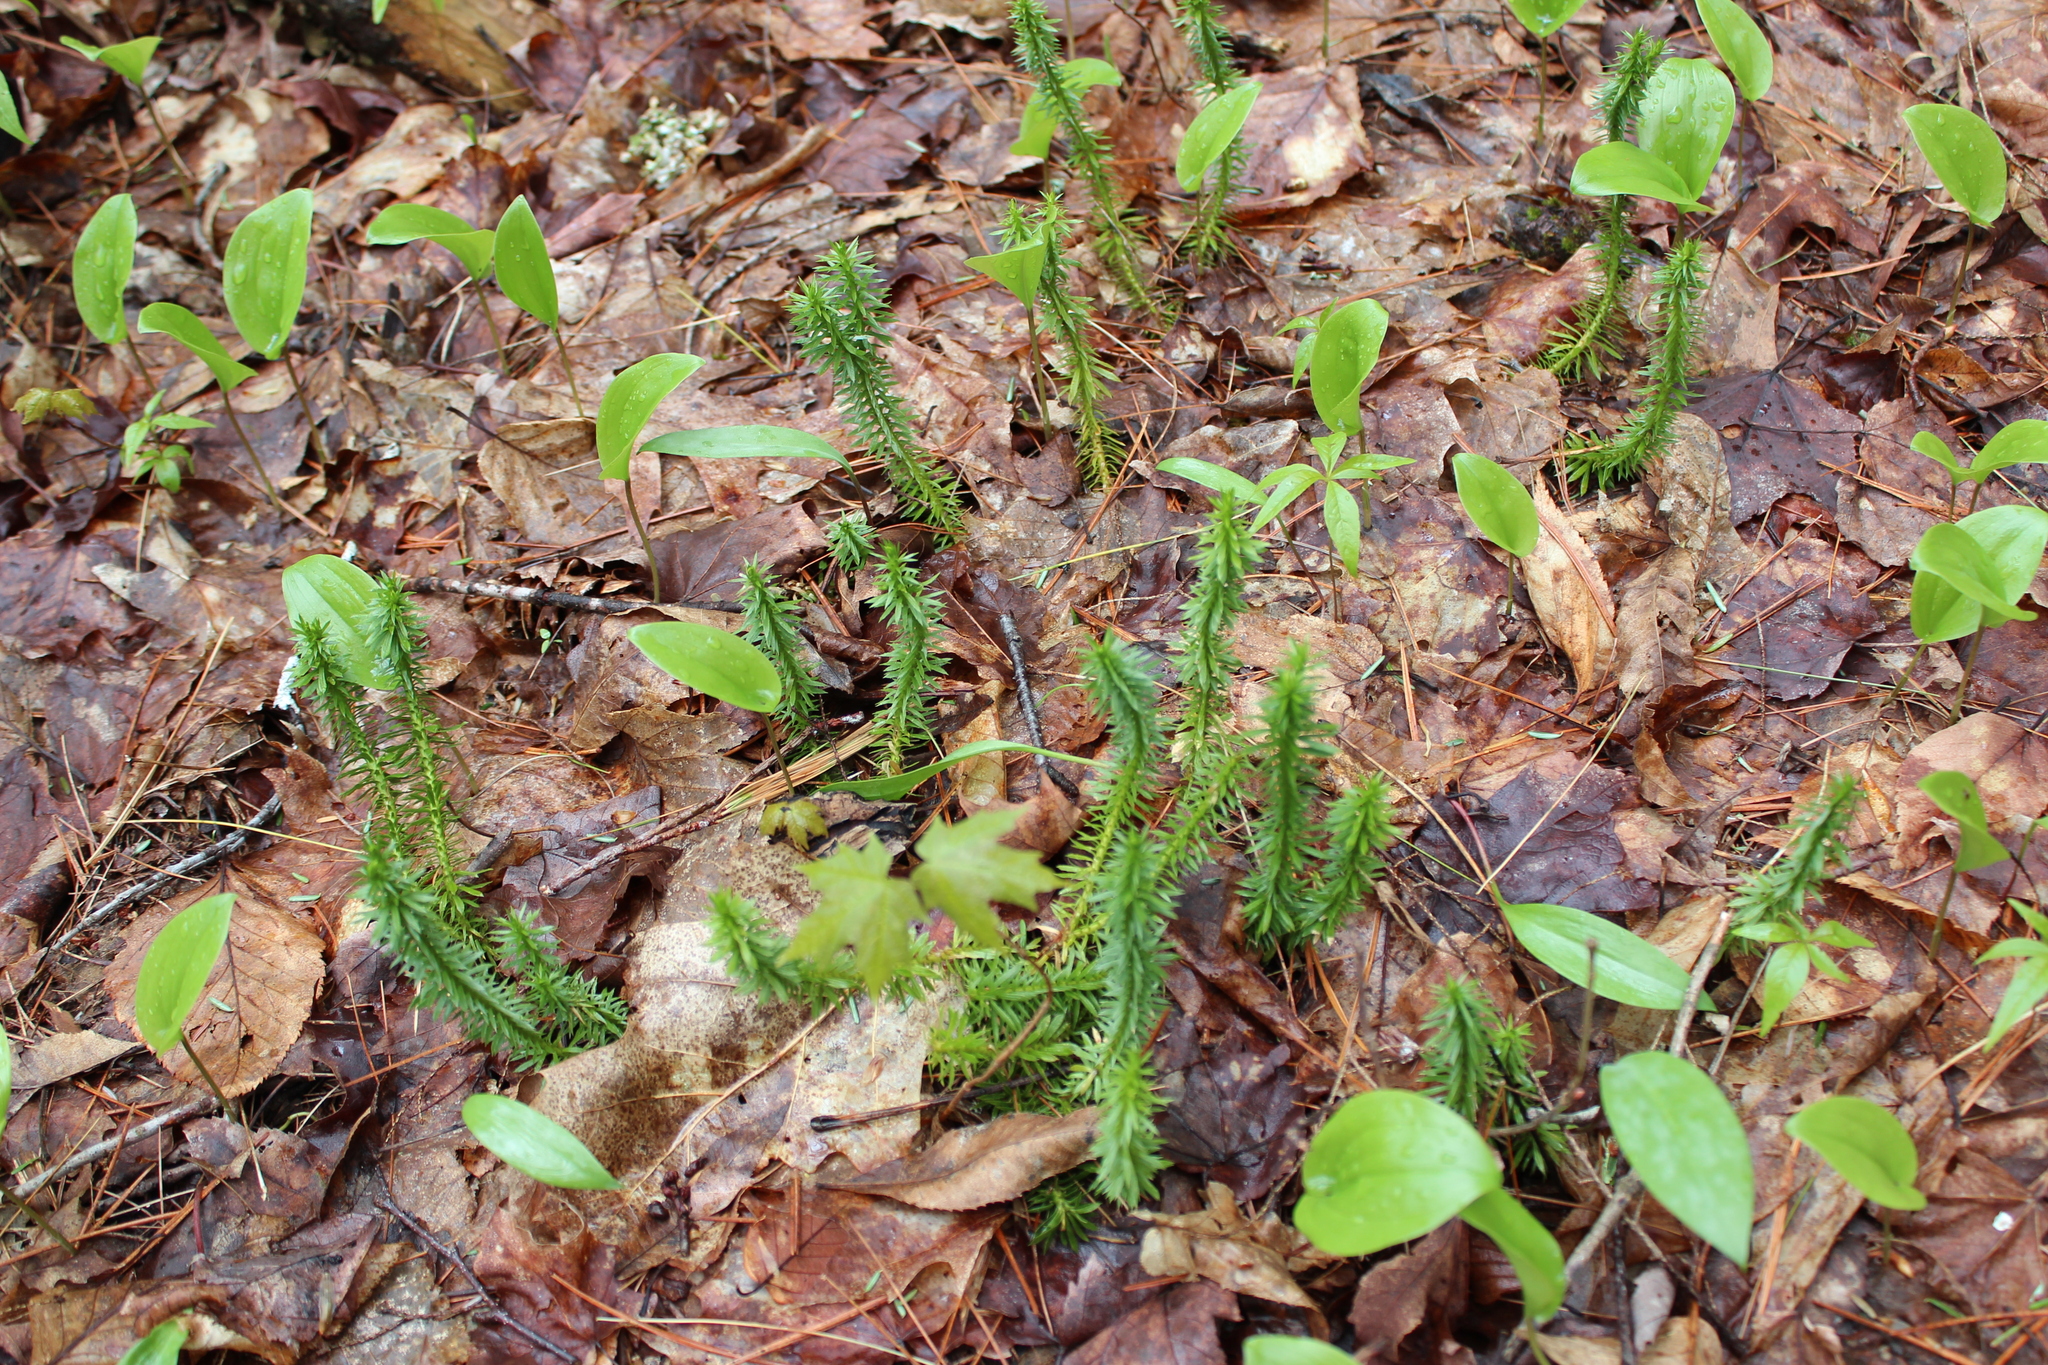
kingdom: Plantae
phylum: Tracheophyta
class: Lycopodiopsida
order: Lycopodiales
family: Lycopodiaceae
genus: Huperzia
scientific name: Huperzia lucidula
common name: Shining clubmoss
